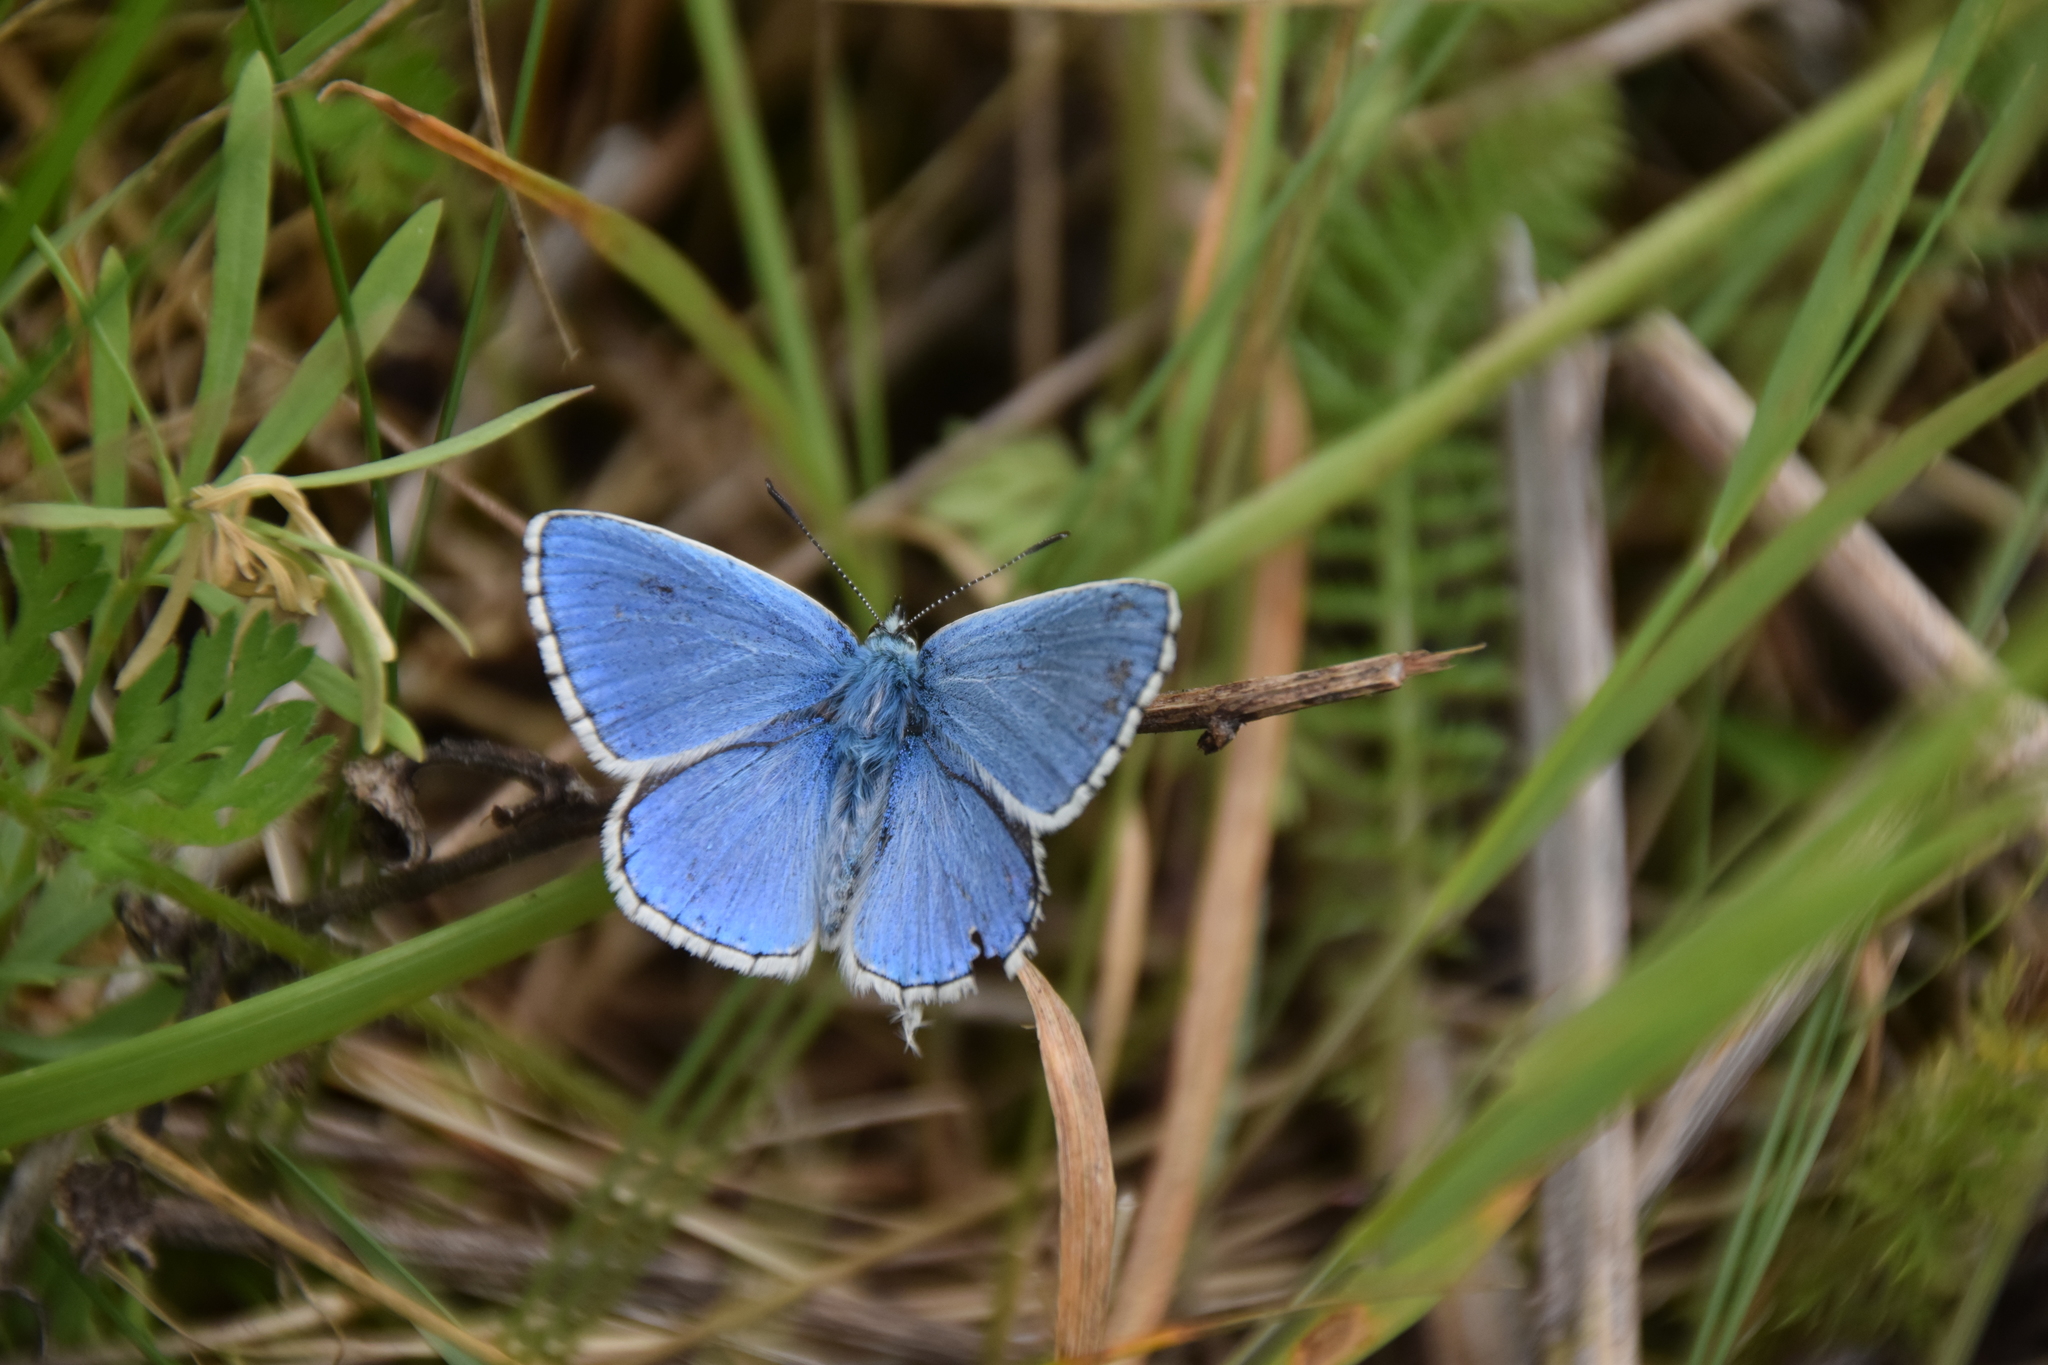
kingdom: Animalia
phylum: Arthropoda
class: Insecta
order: Lepidoptera
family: Lycaenidae
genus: Lysandra
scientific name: Lysandra bellargus
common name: Adonis blue
